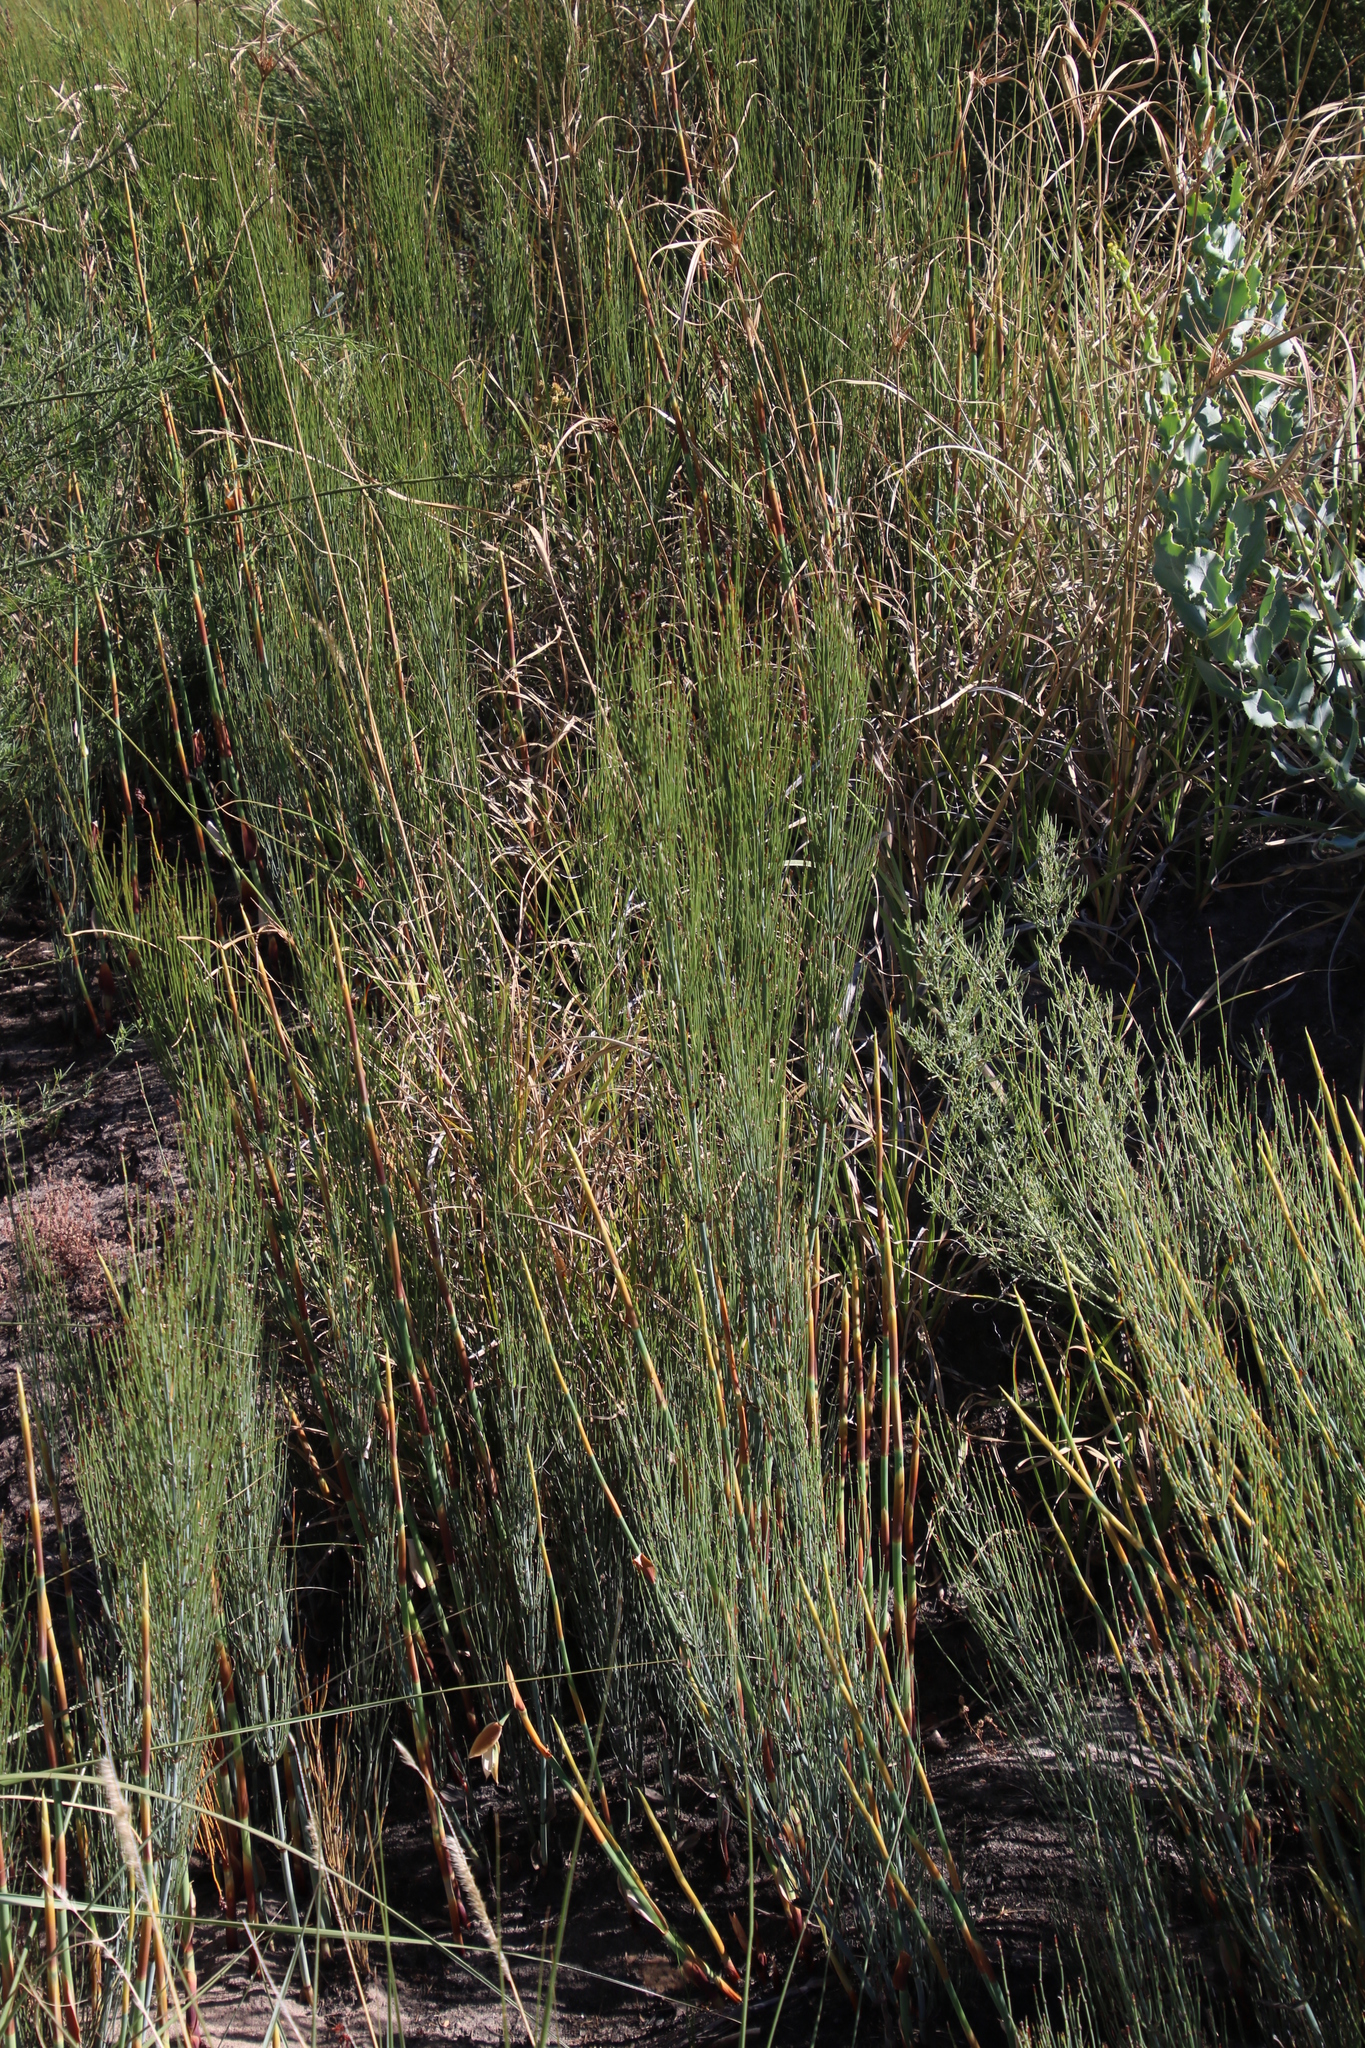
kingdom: Plantae
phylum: Tracheophyta
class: Liliopsida
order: Poales
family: Restionaceae
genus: Elegia
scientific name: Elegia capensis
